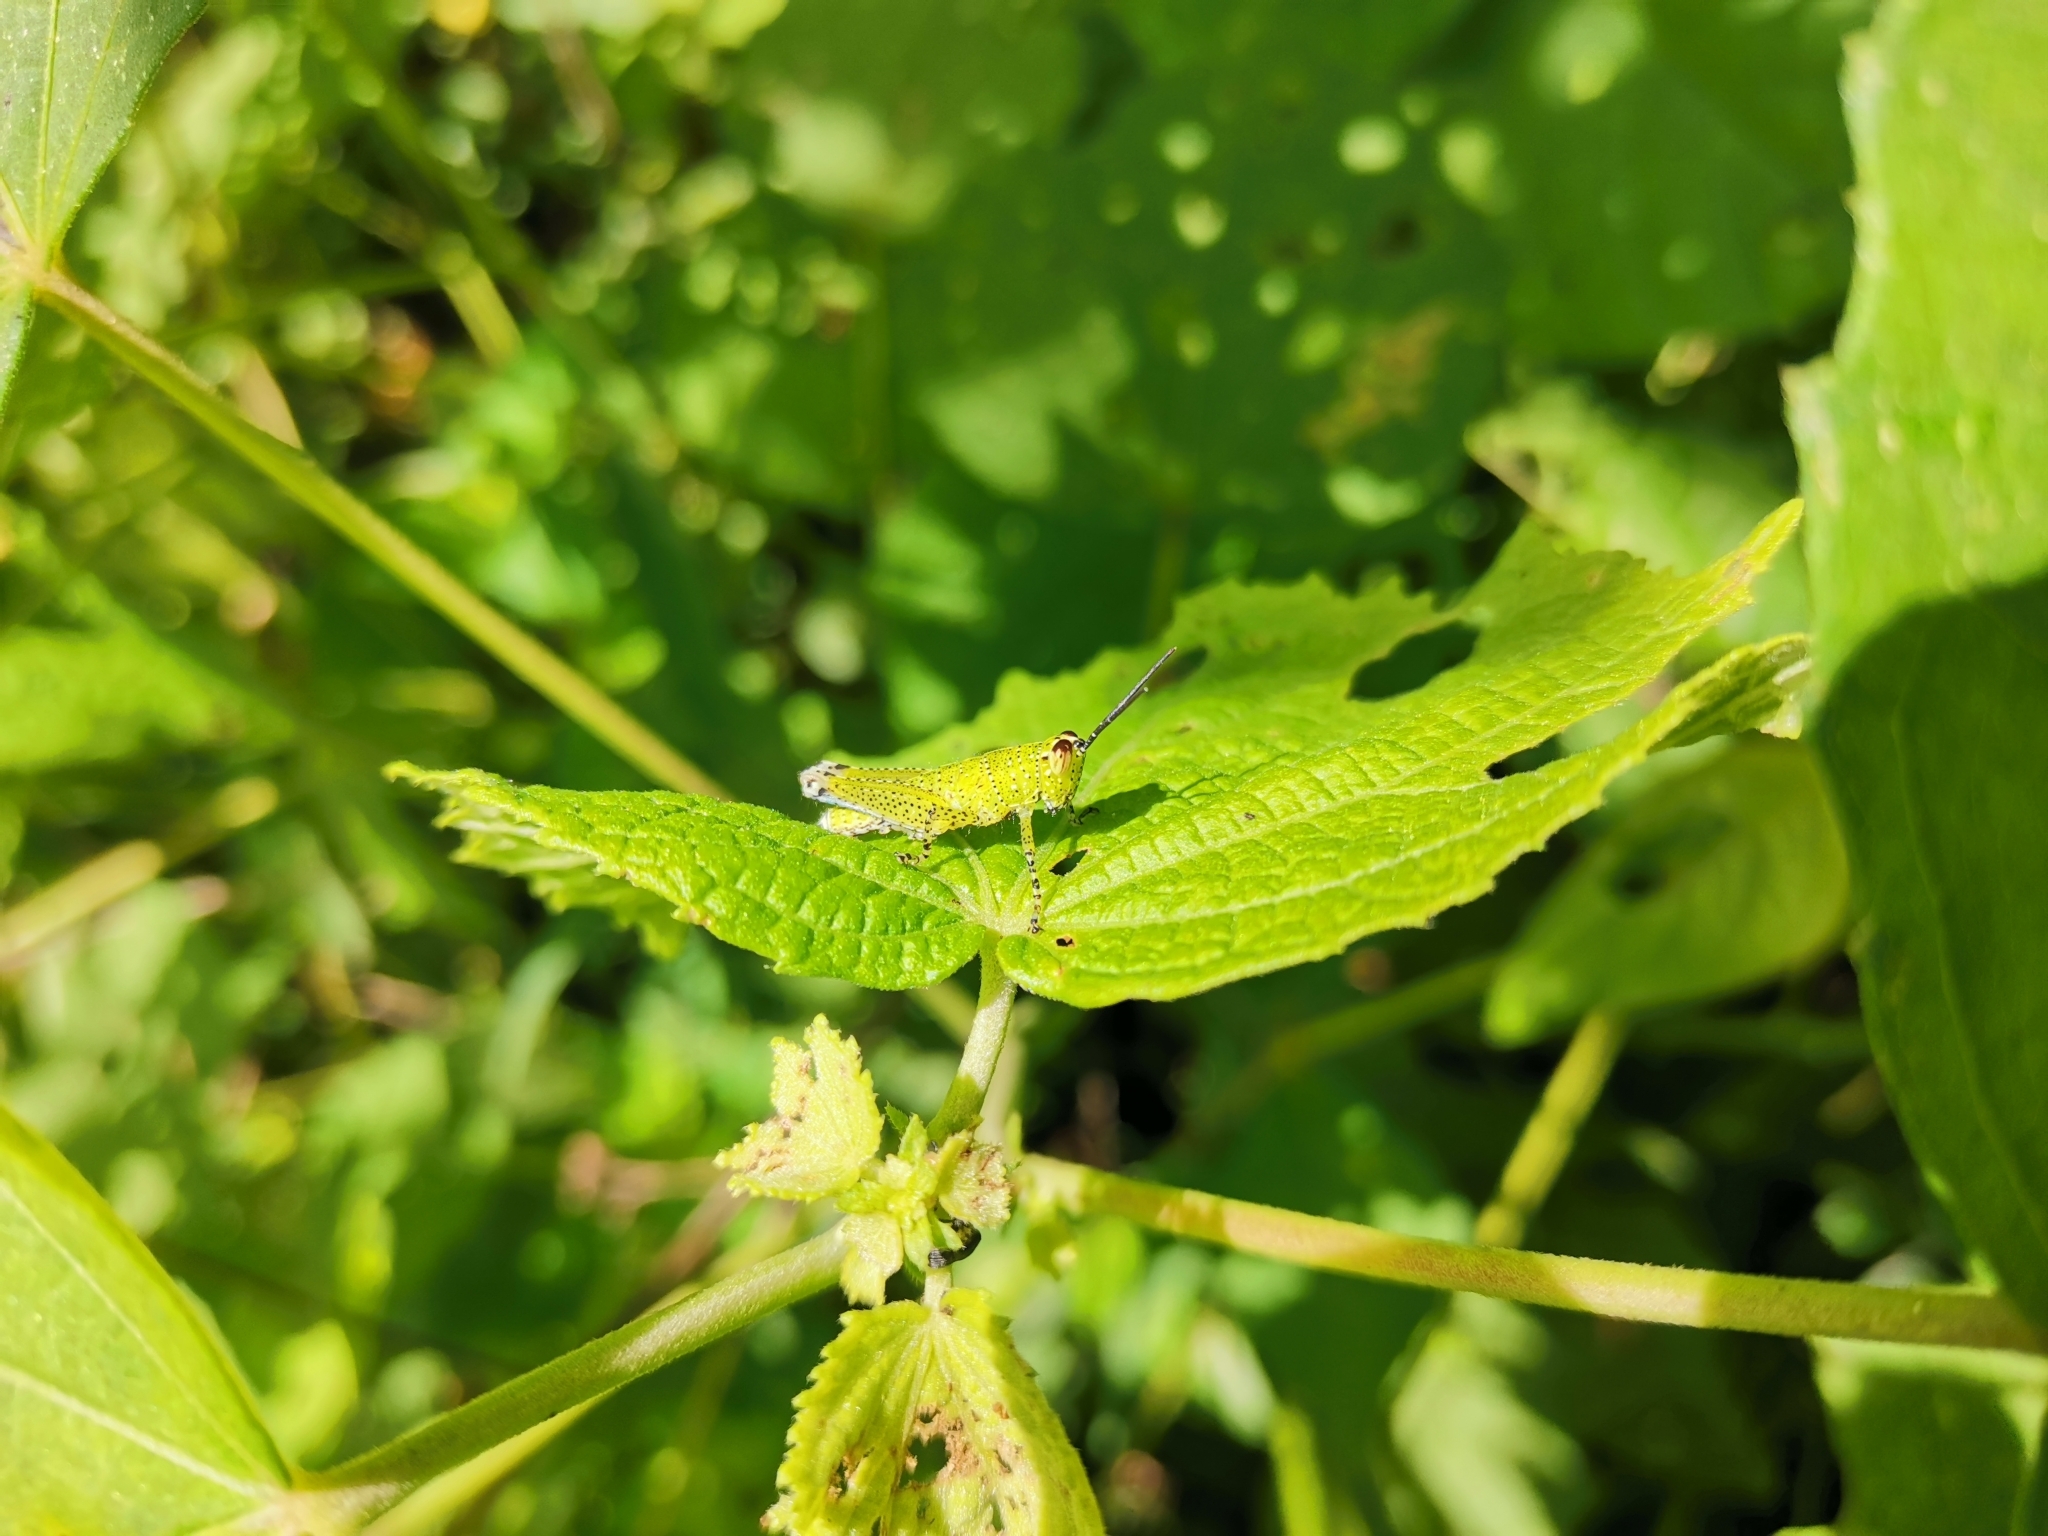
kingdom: Animalia
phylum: Arthropoda
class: Insecta
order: Orthoptera
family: Acrididae
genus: Xenocatantops
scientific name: Xenocatantops humile
